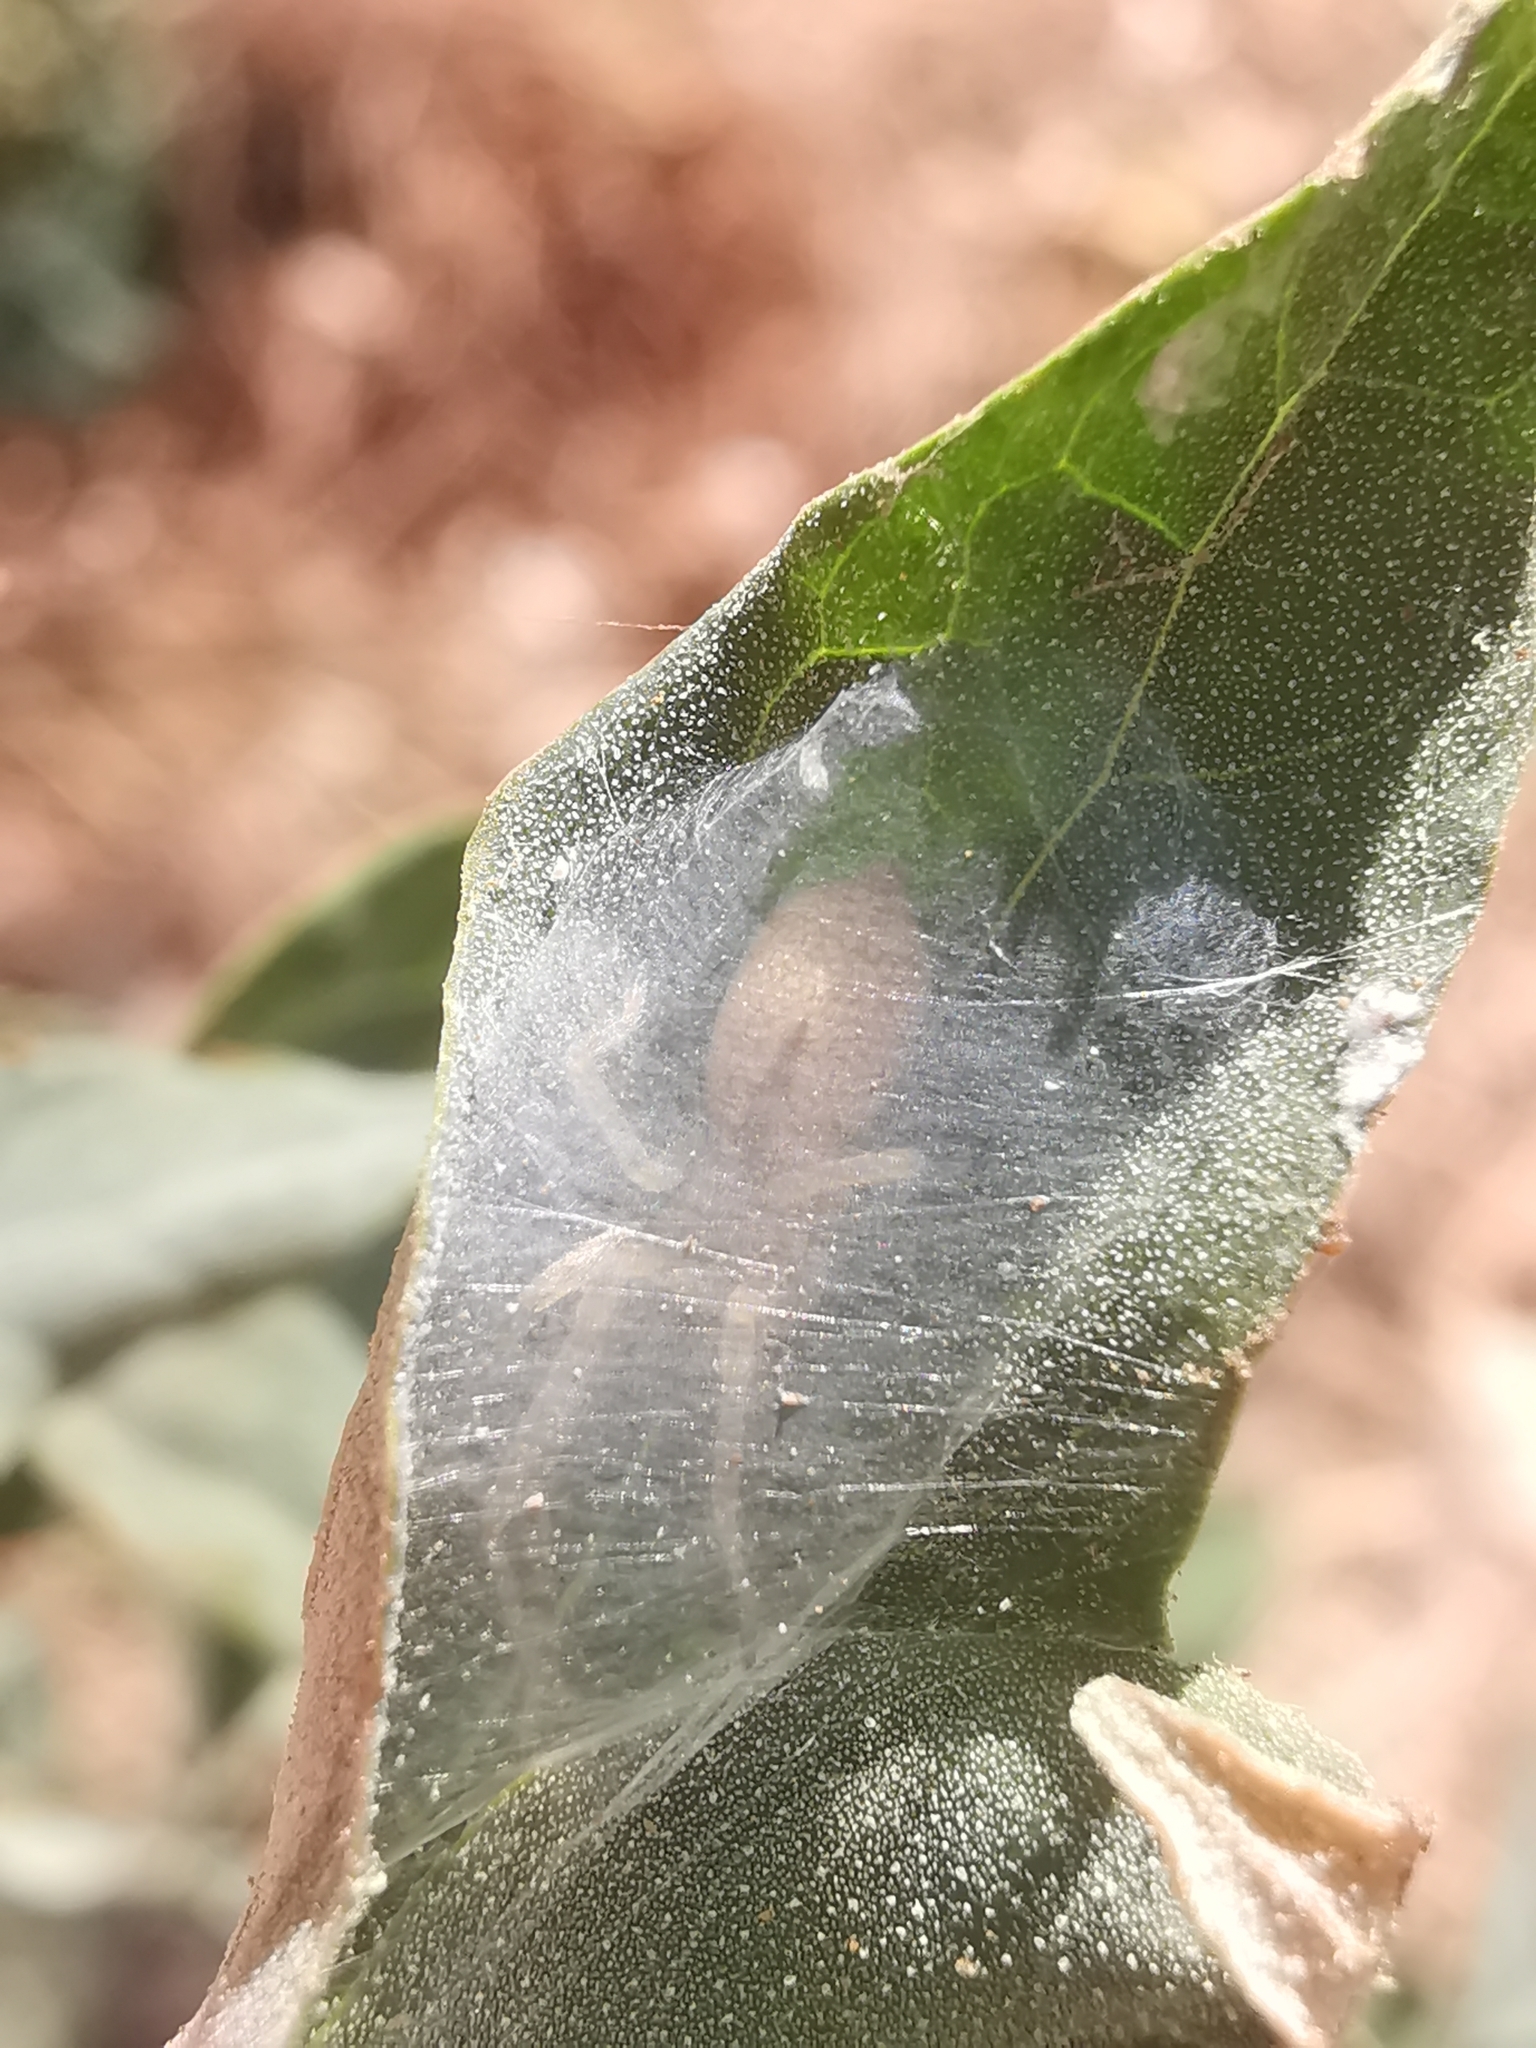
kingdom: Animalia
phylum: Arthropoda
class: Arachnida
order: Araneae
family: Cheiracanthiidae
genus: Cheiracanthium
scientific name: Cheiracanthium
